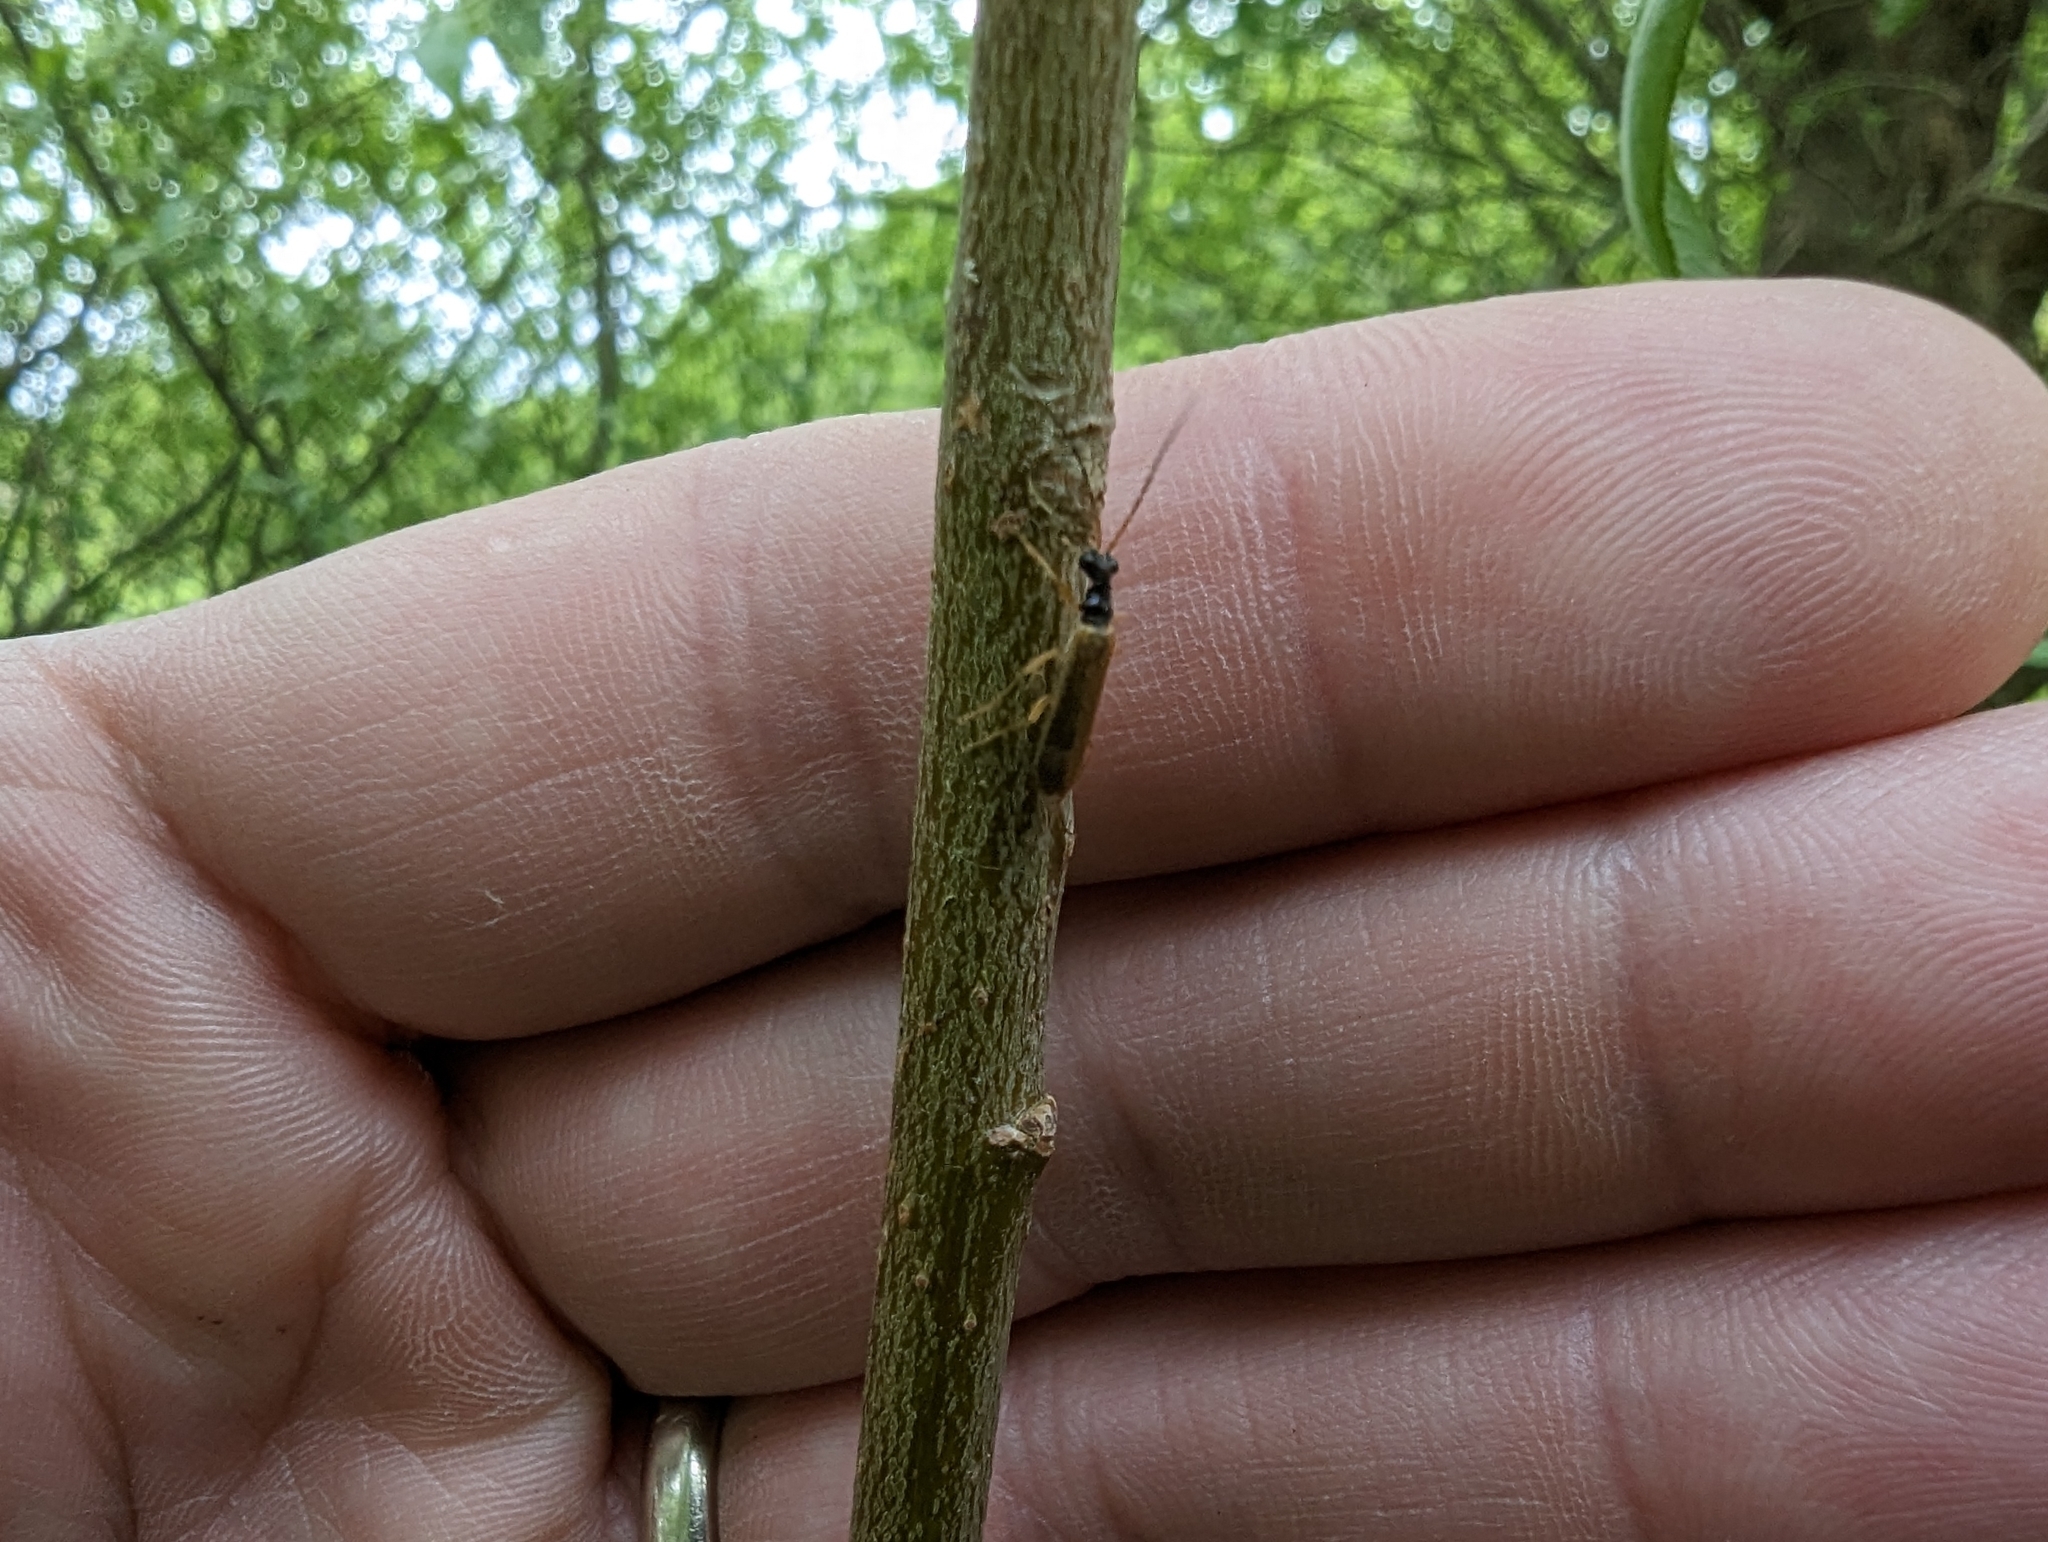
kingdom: Animalia
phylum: Arthropoda
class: Insecta
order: Coleoptera
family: Cantharidae
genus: Rhagonycha
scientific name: Rhagonycha lignosa
